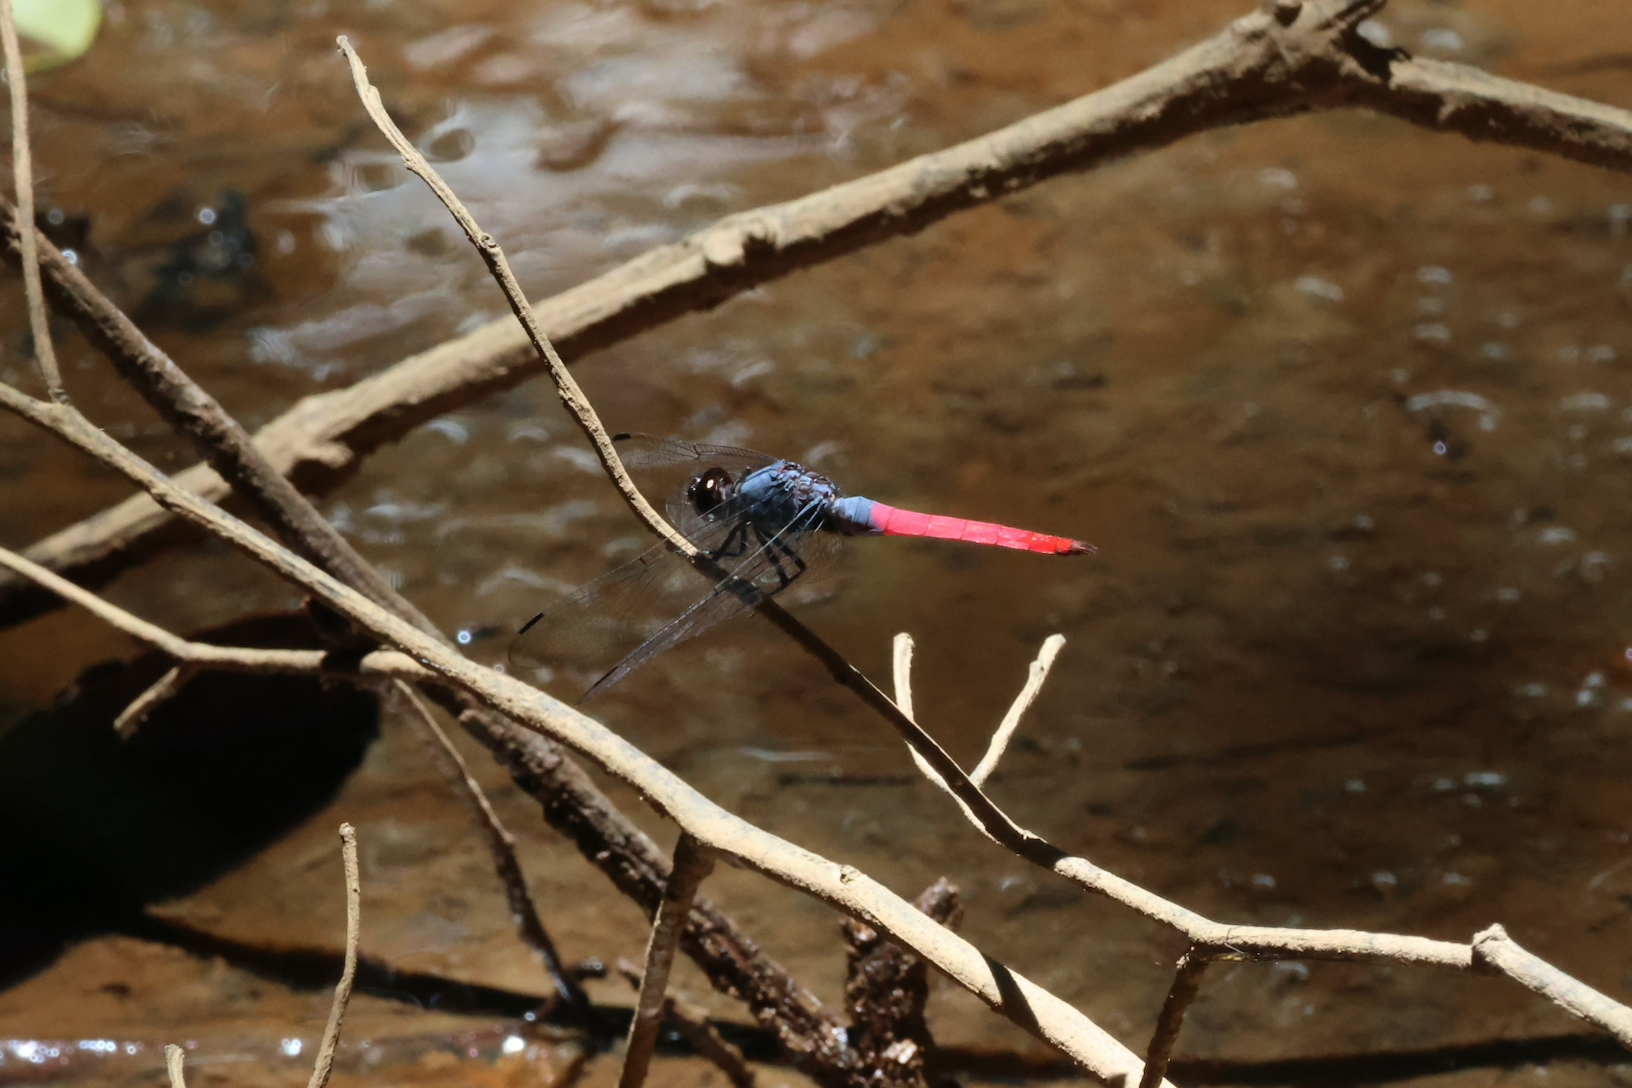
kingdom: Animalia
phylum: Arthropoda
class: Insecta
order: Odonata
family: Libellulidae
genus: Orthetrum
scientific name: Orthetrum schneideri
